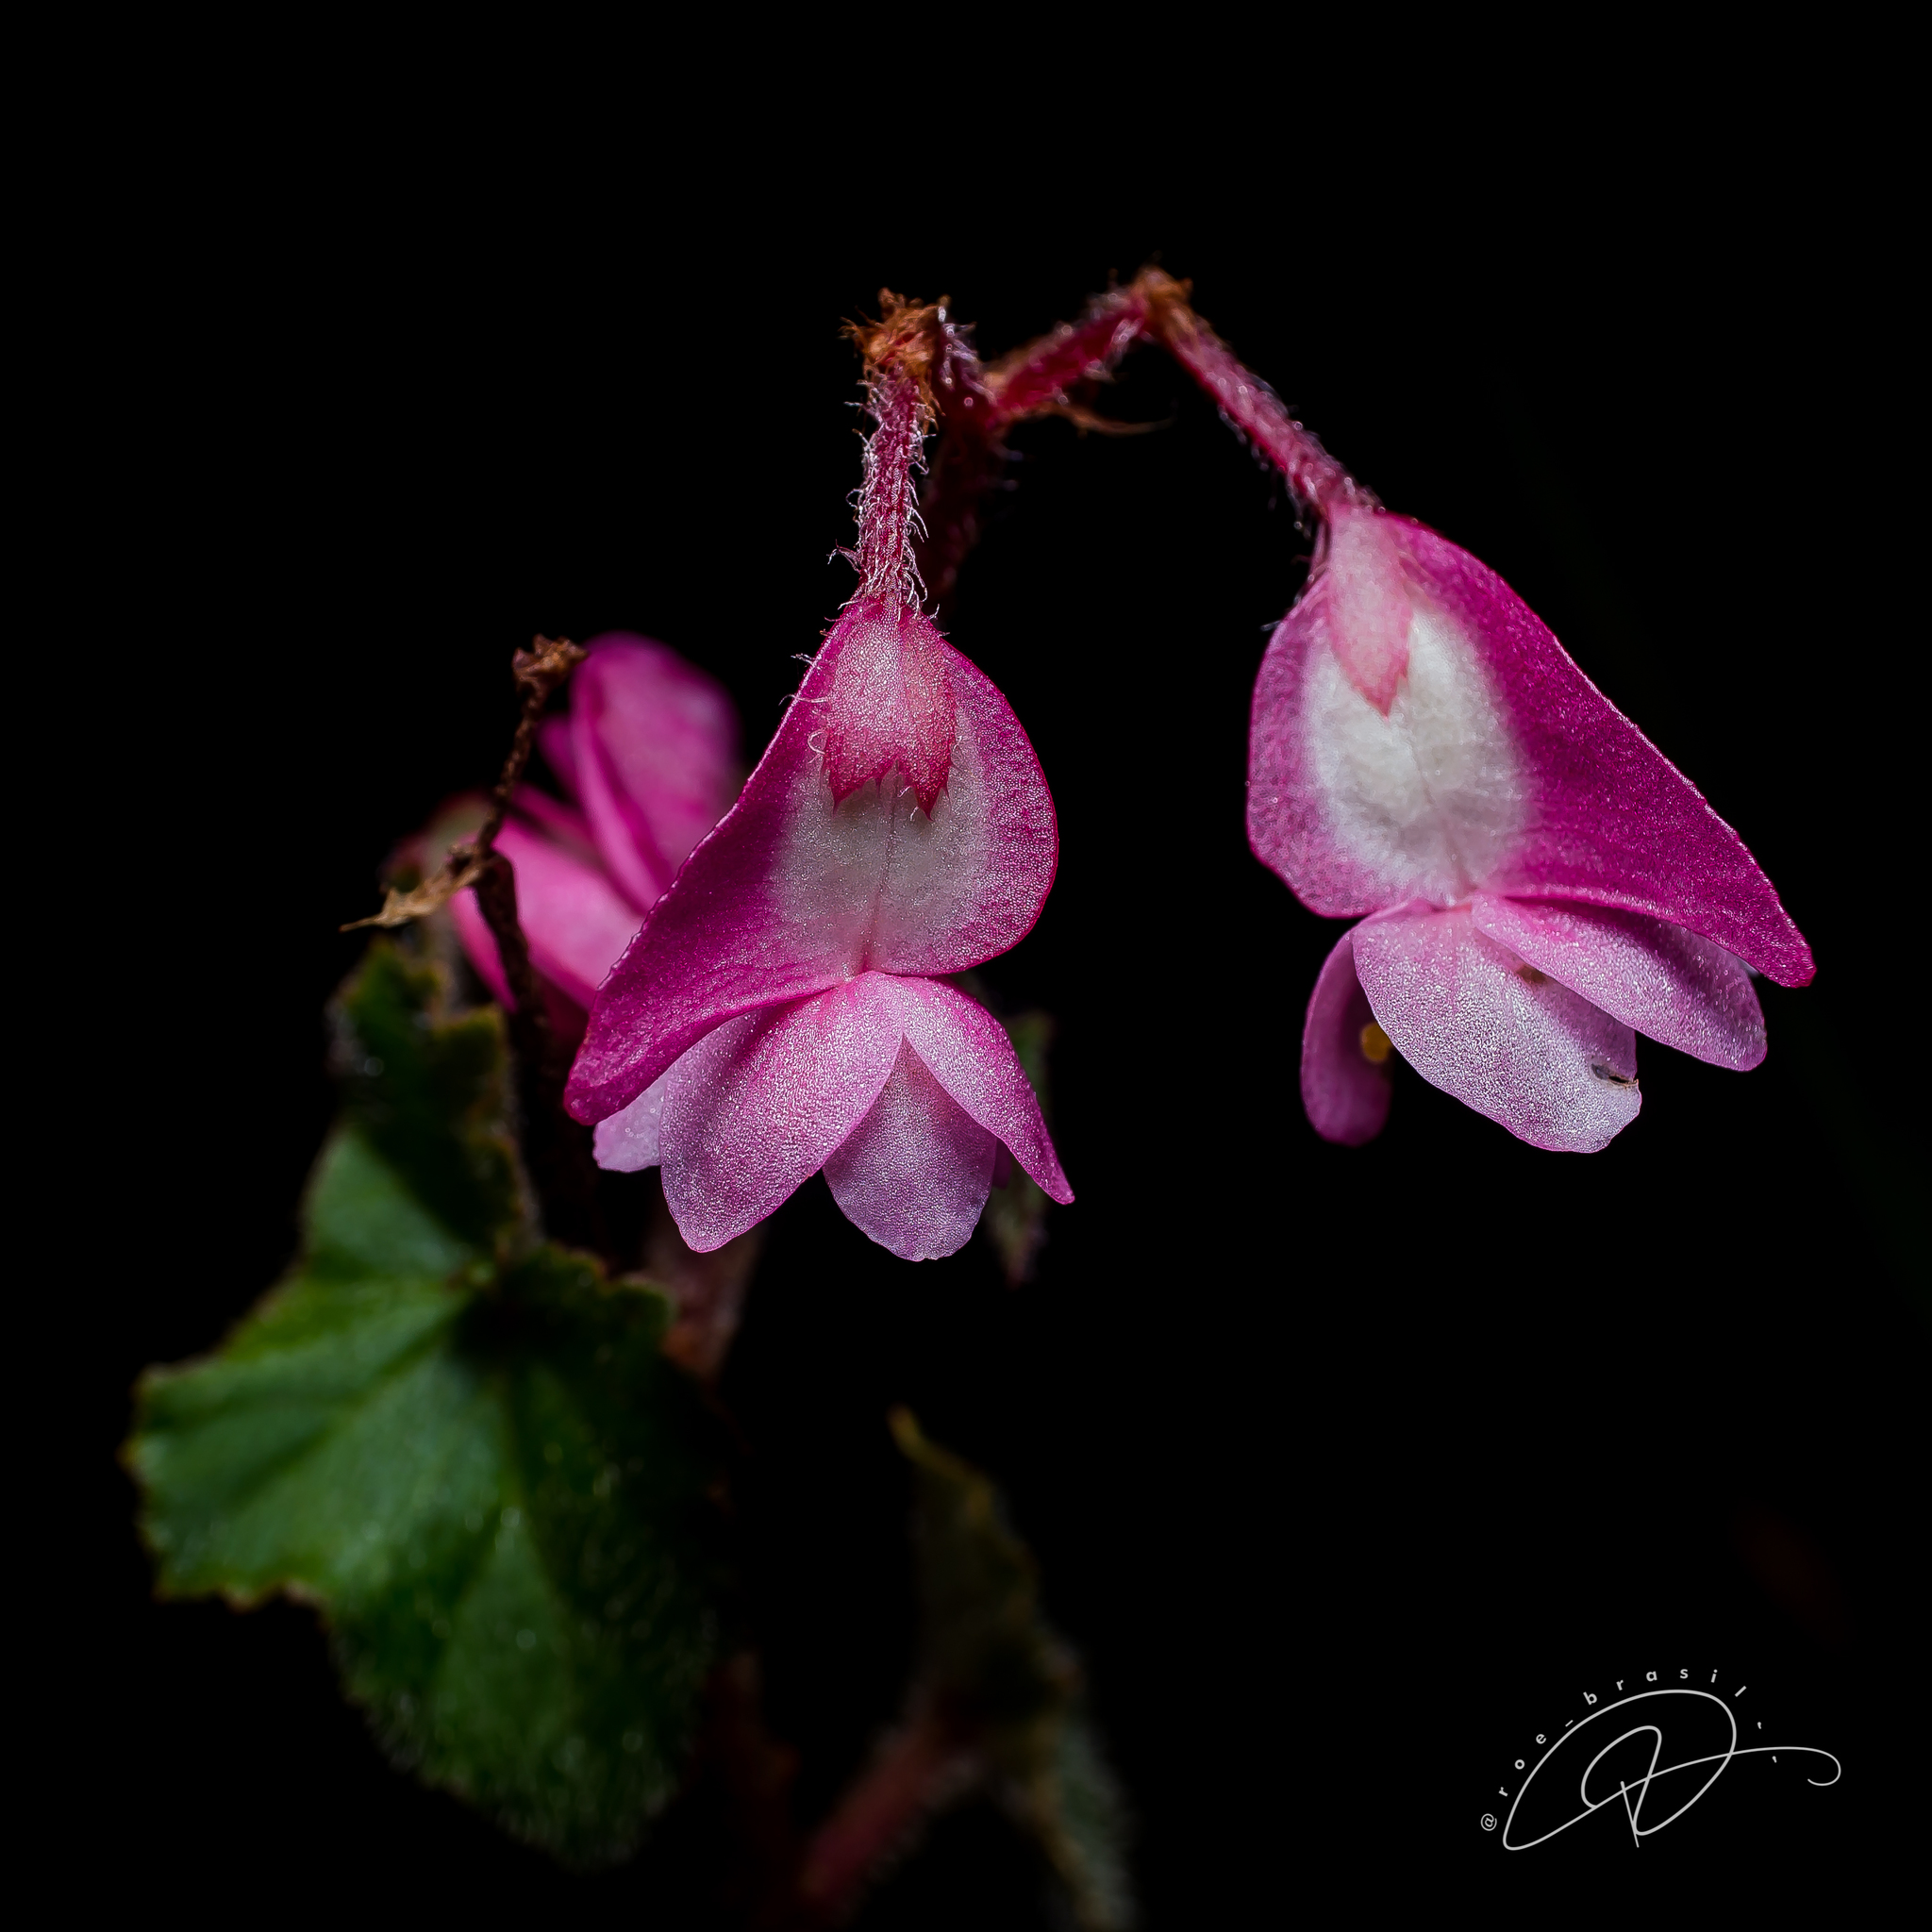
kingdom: Plantae
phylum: Tracheophyta
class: Magnoliopsida
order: Cucurbitales
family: Begoniaceae
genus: Begonia
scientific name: Begonia fischeri
